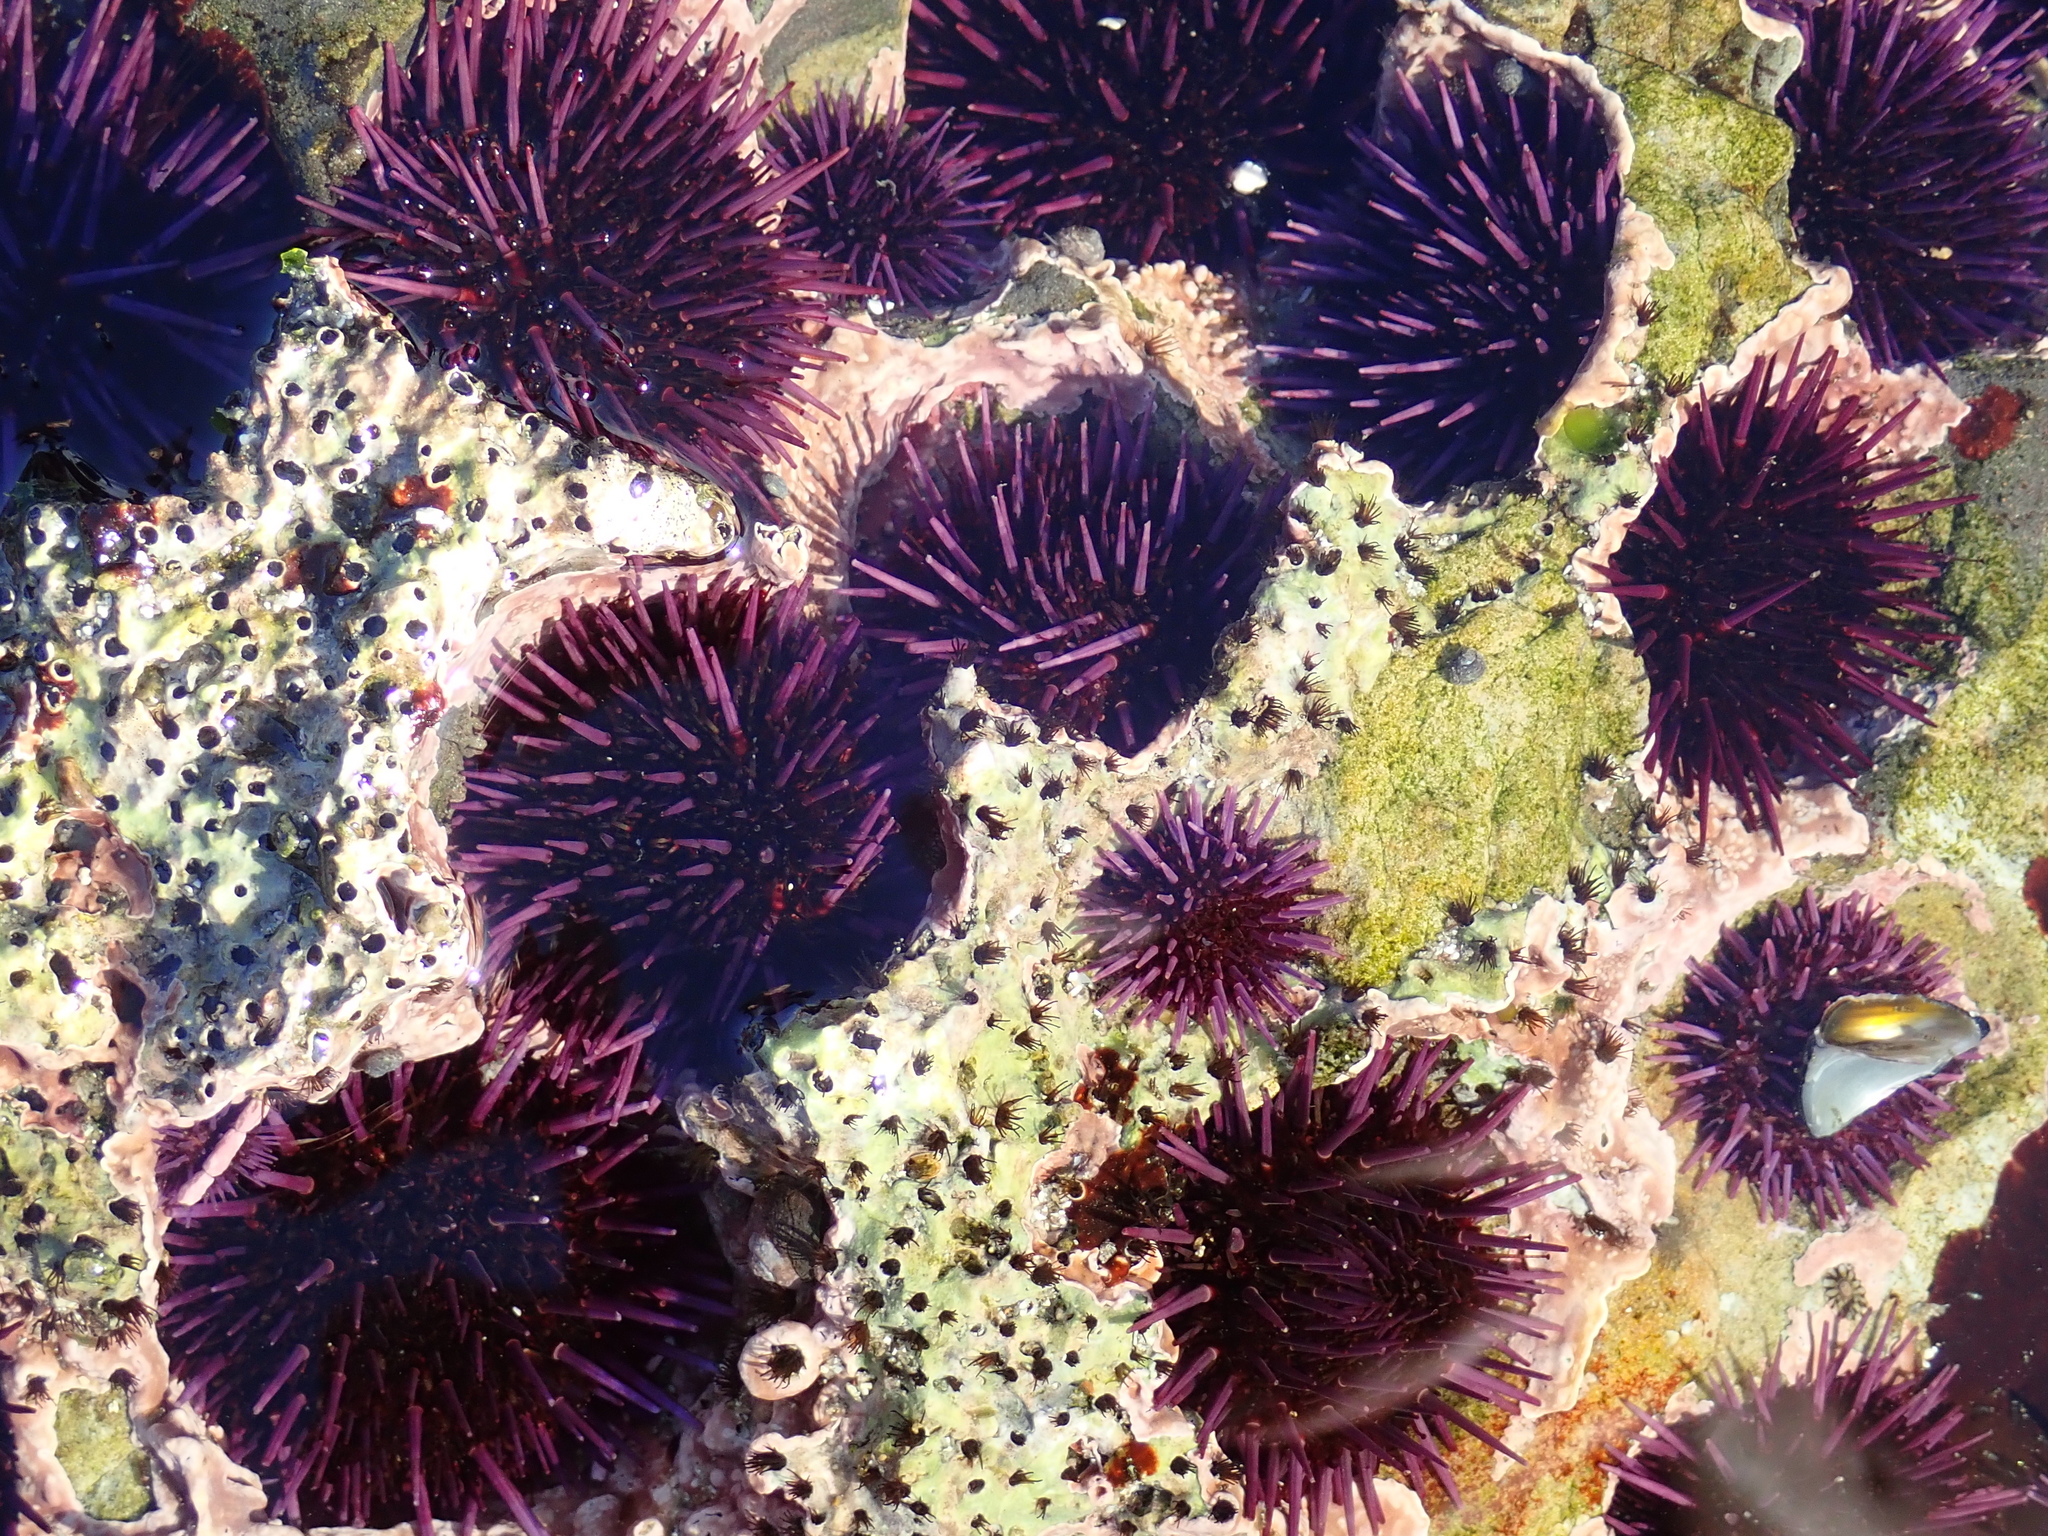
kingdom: Animalia
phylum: Echinodermata
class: Echinoidea
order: Camarodonta
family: Strongylocentrotidae
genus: Strongylocentrotus
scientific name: Strongylocentrotus purpuratus
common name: Purple sea urchin
